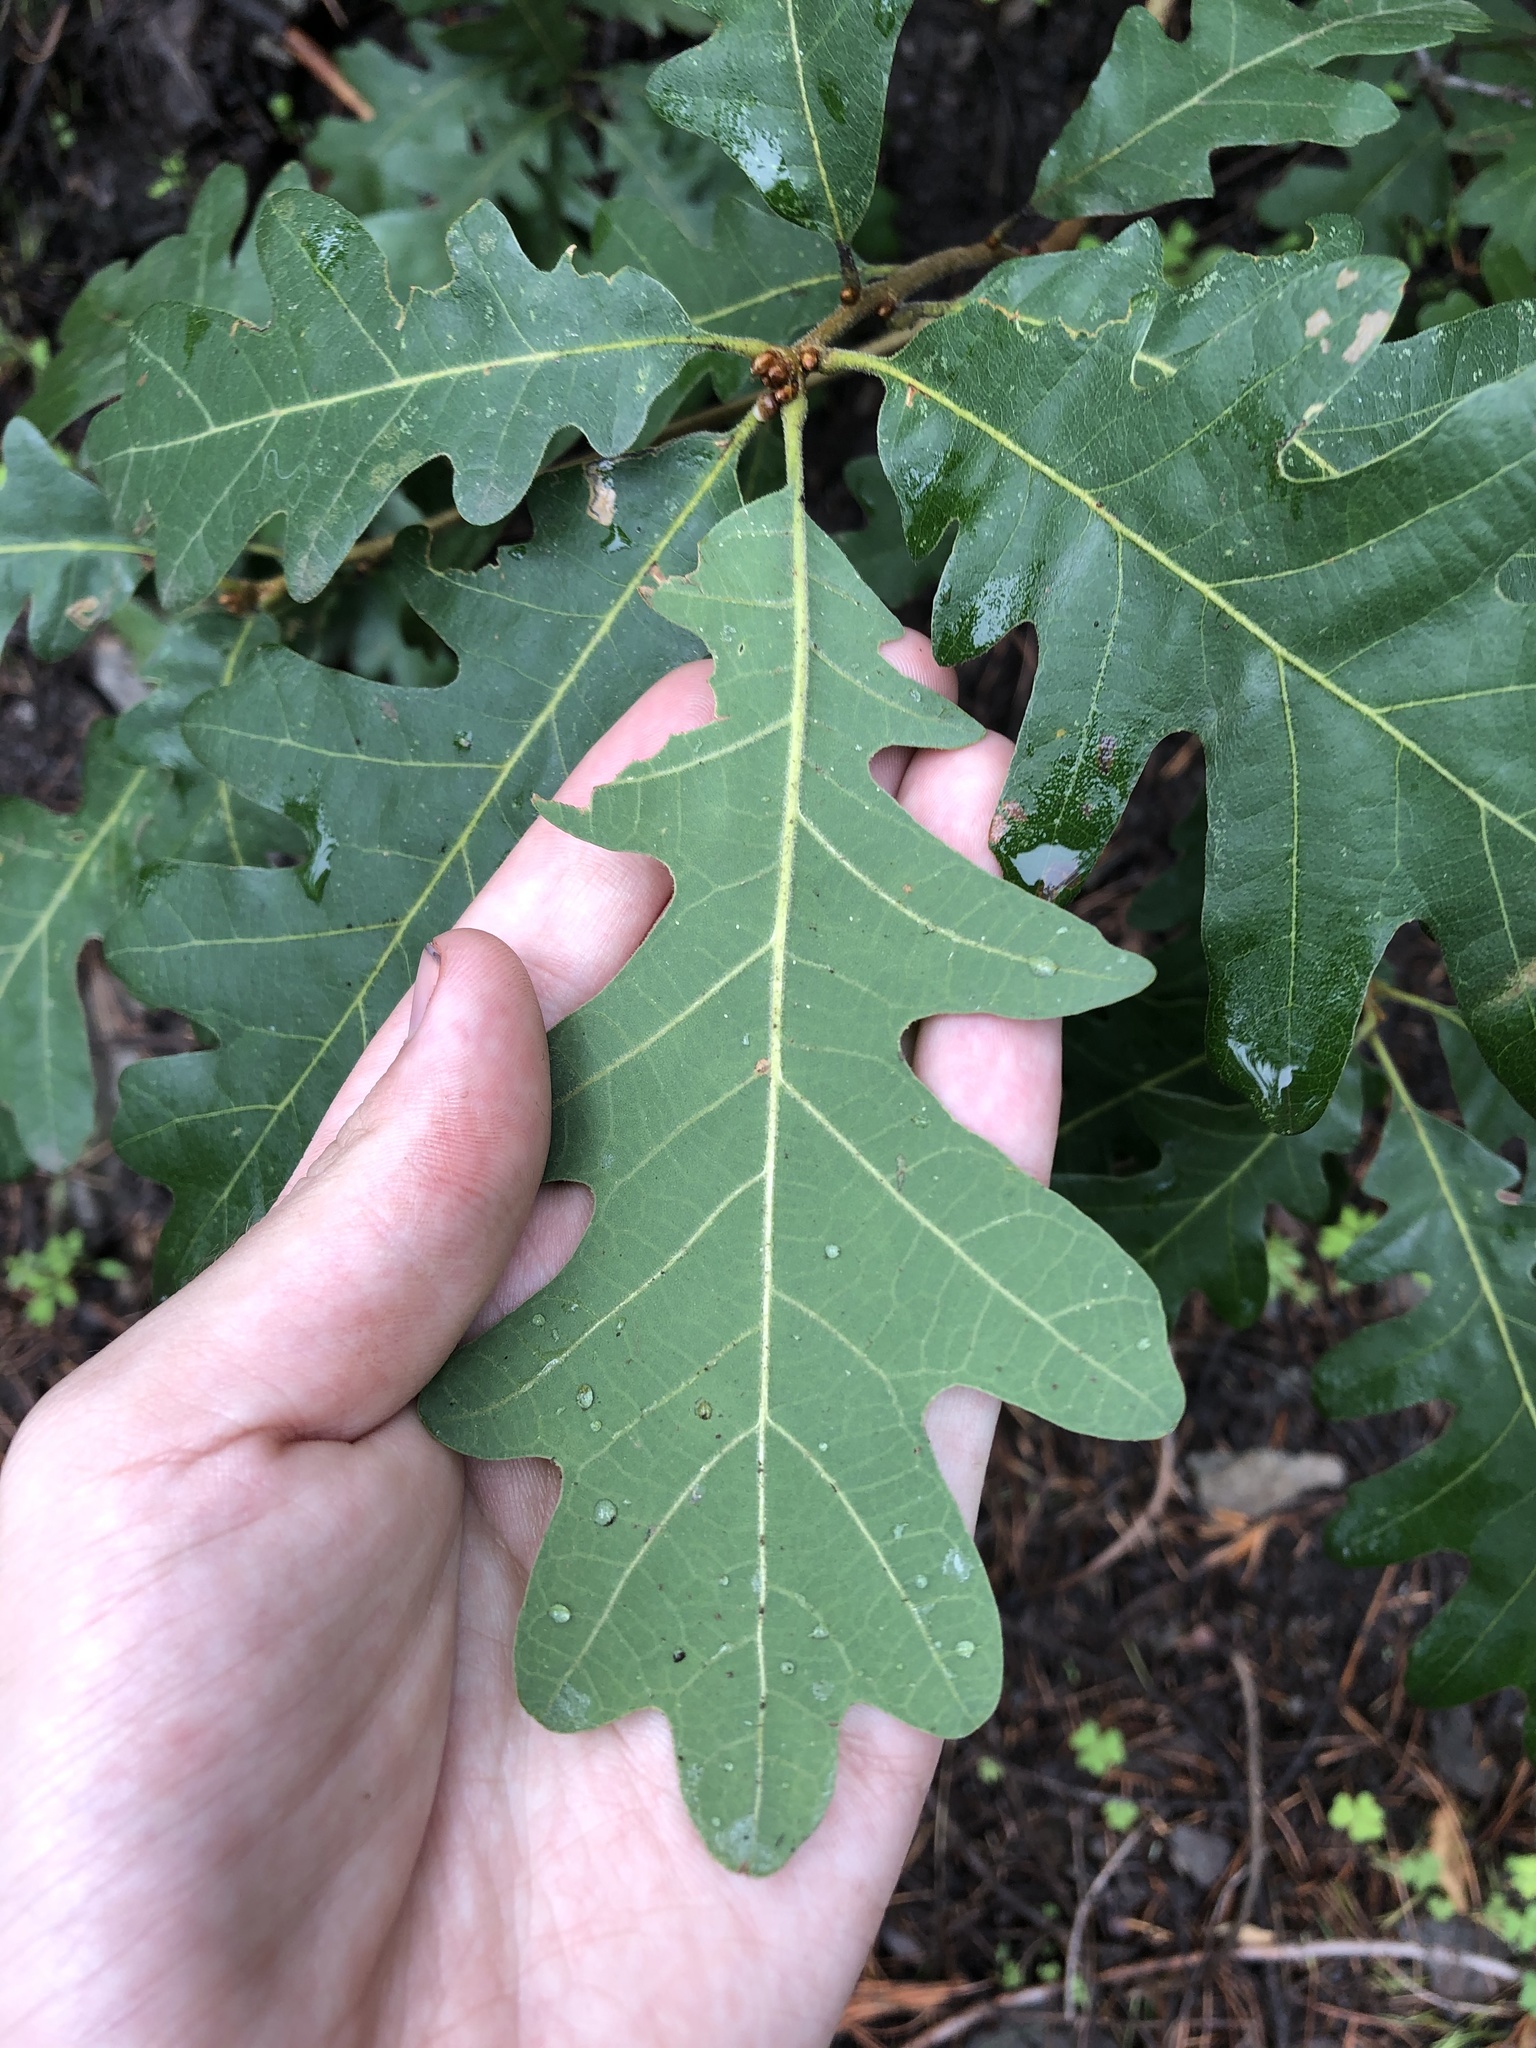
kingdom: Plantae
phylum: Tracheophyta
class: Magnoliopsida
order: Fagales
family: Fagaceae
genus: Quercus
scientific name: Quercus gambelii
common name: Gambel oak
